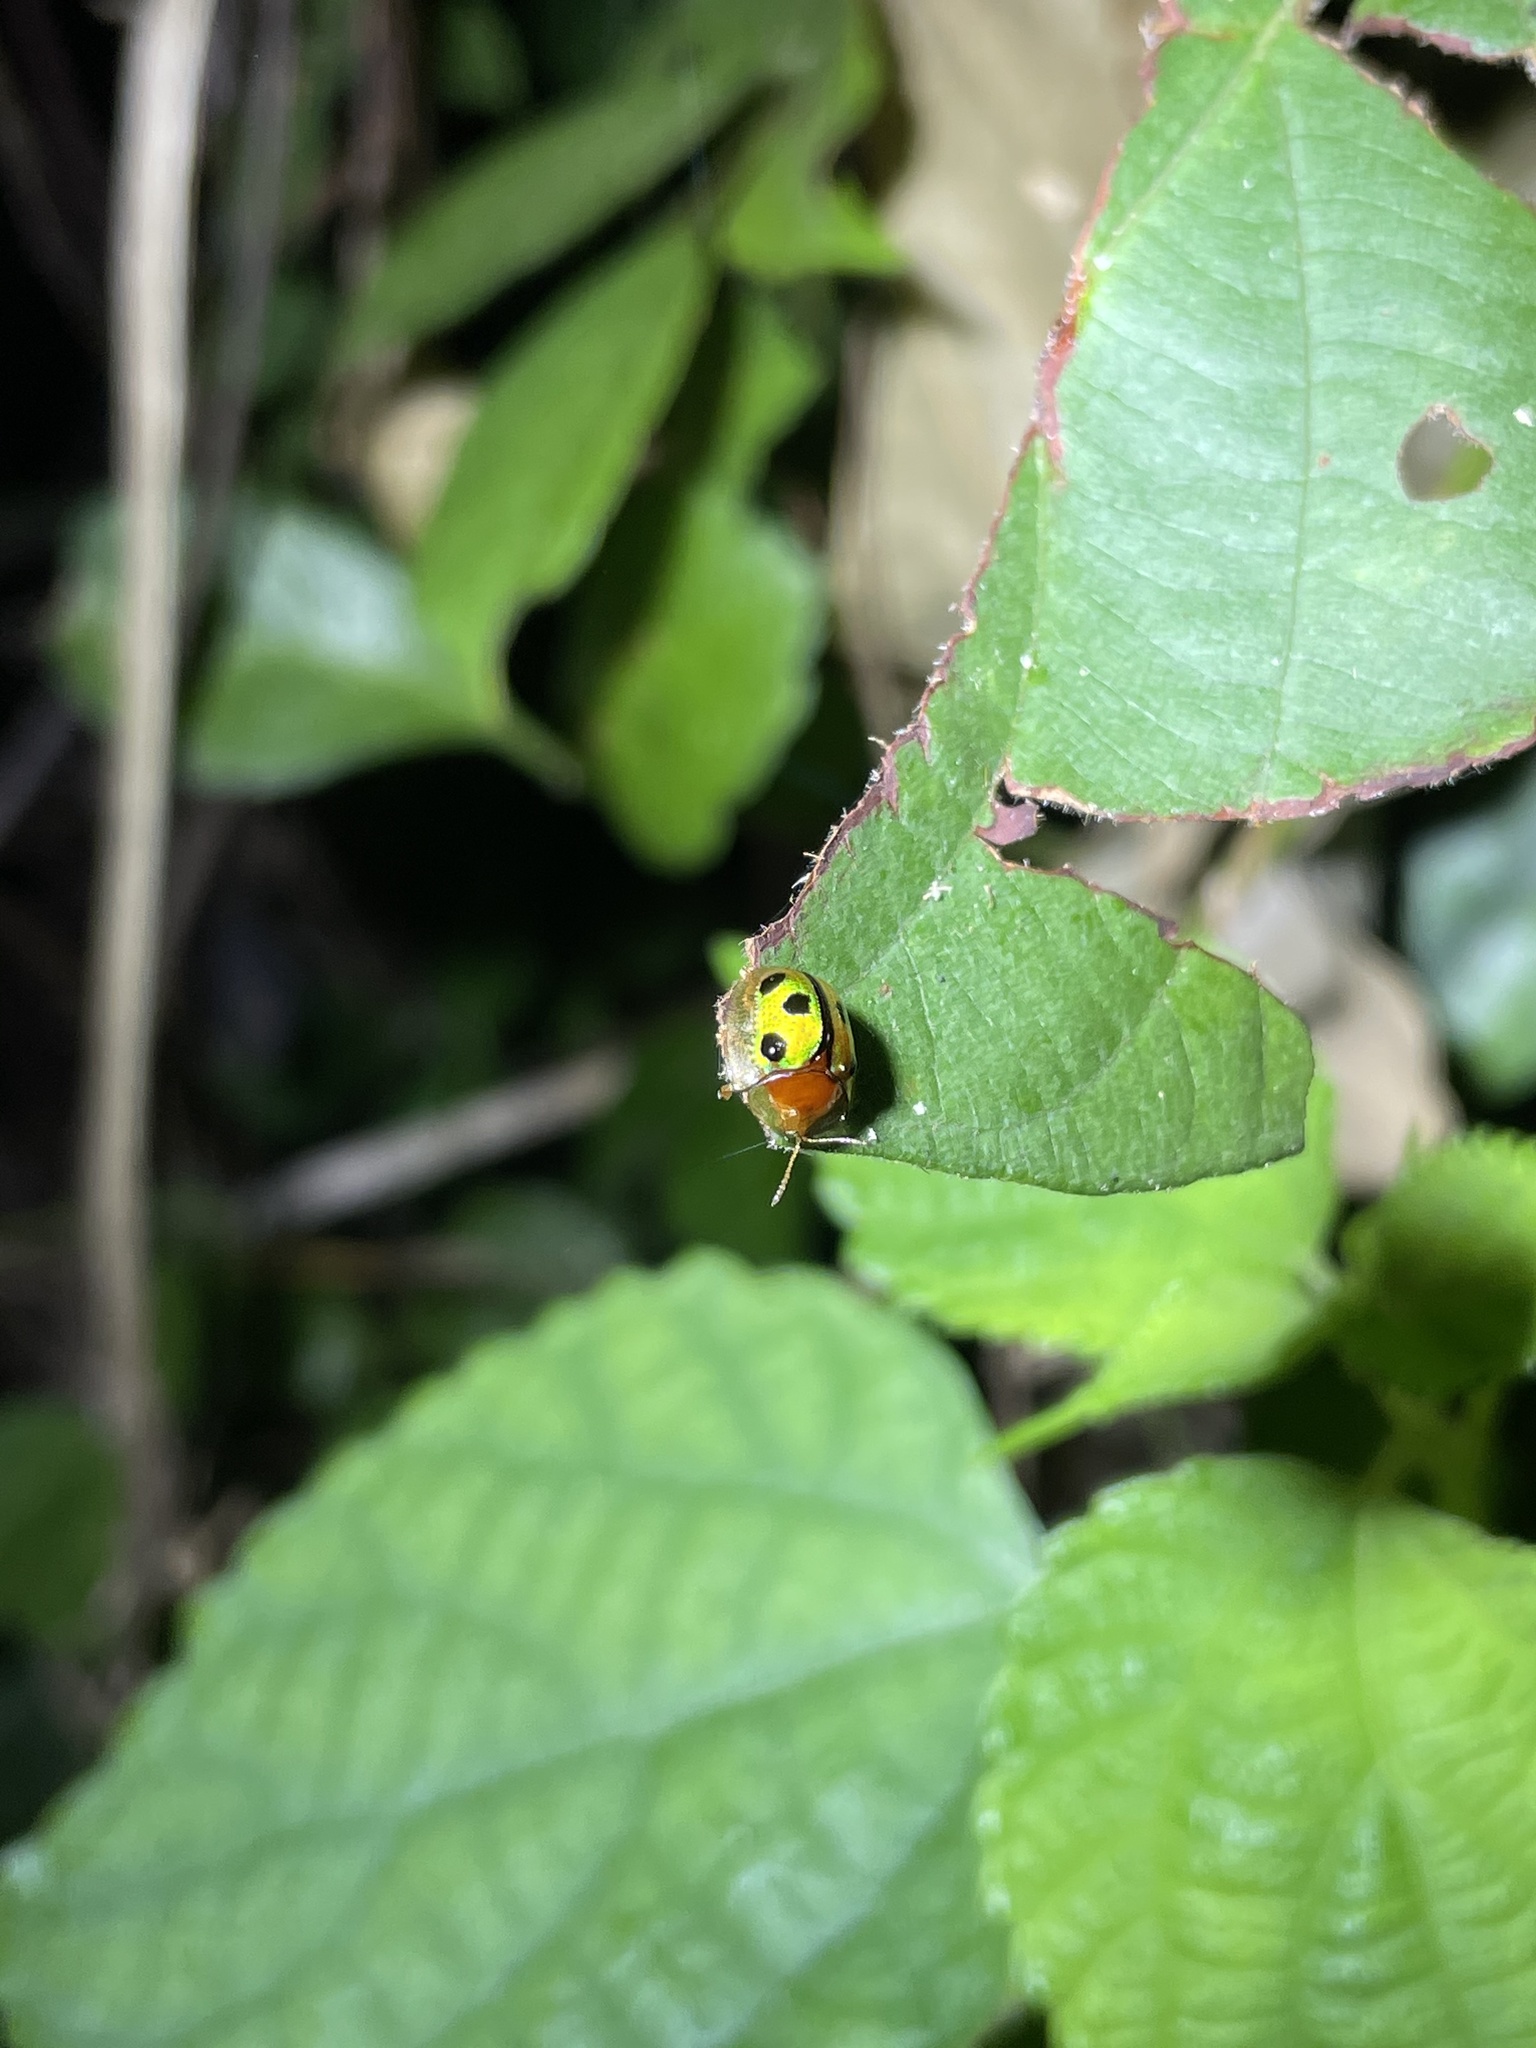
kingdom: Animalia
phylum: Arthropoda
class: Insecta
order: Coleoptera
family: Chrysomelidae
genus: Chiridopsis
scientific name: Chiridopsis bowringii
